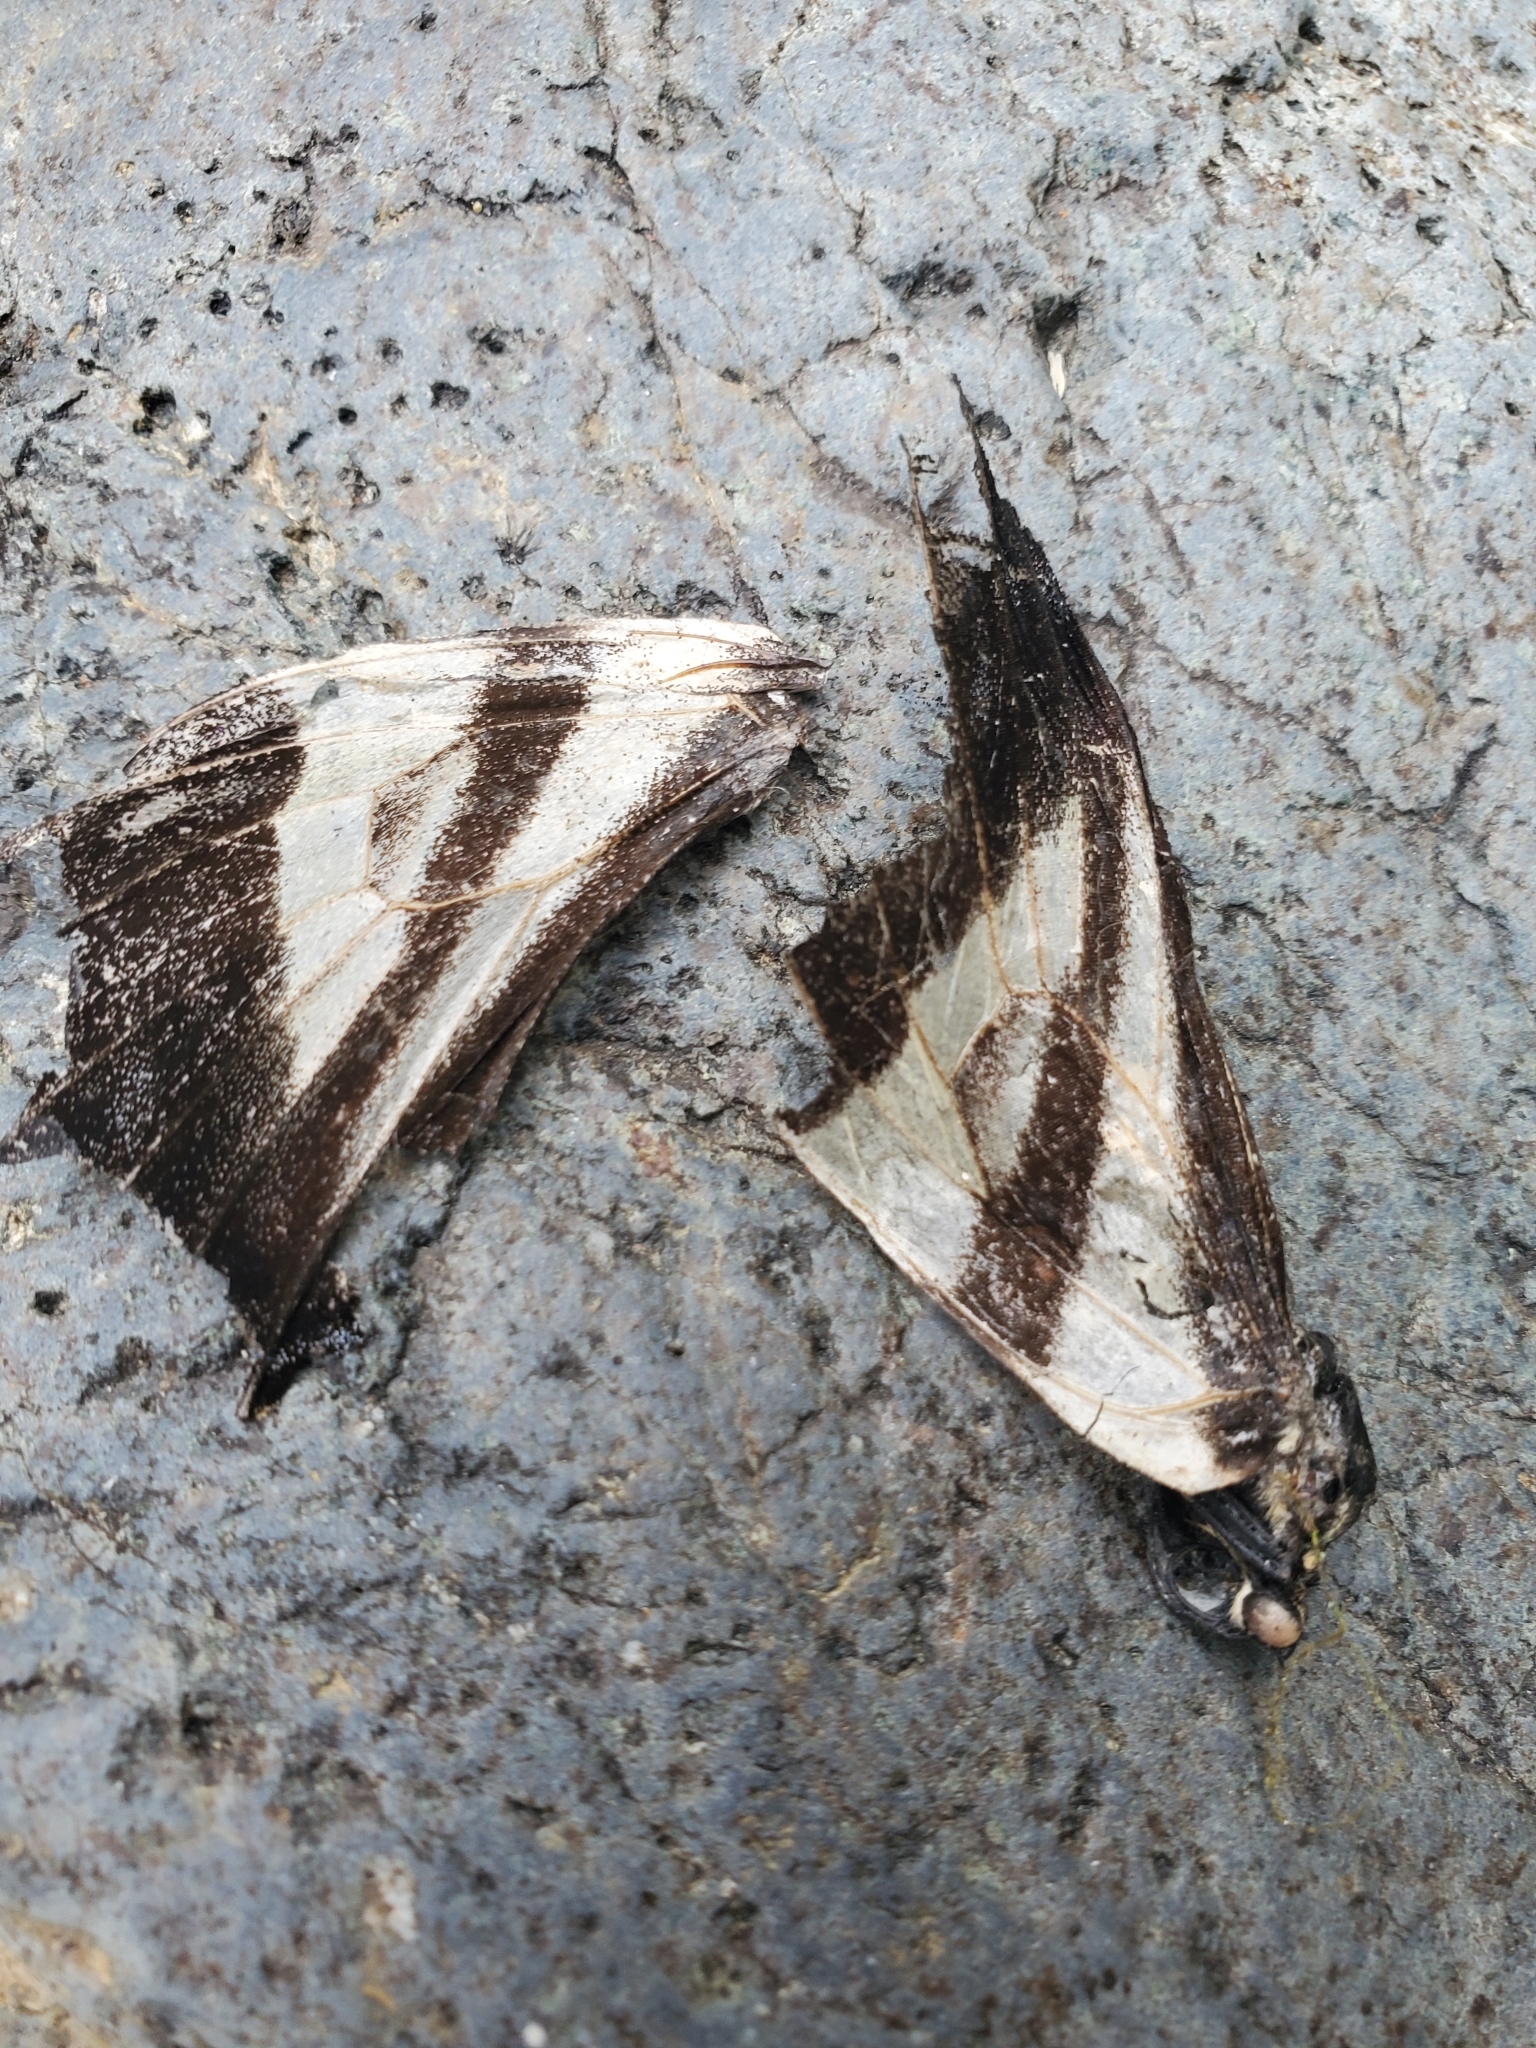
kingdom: Animalia
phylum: Arthropoda
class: Insecta
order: Lepidoptera
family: Papilionidae
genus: Papilio
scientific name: Papilio eurymedon
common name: Pale tiger swallowtail
